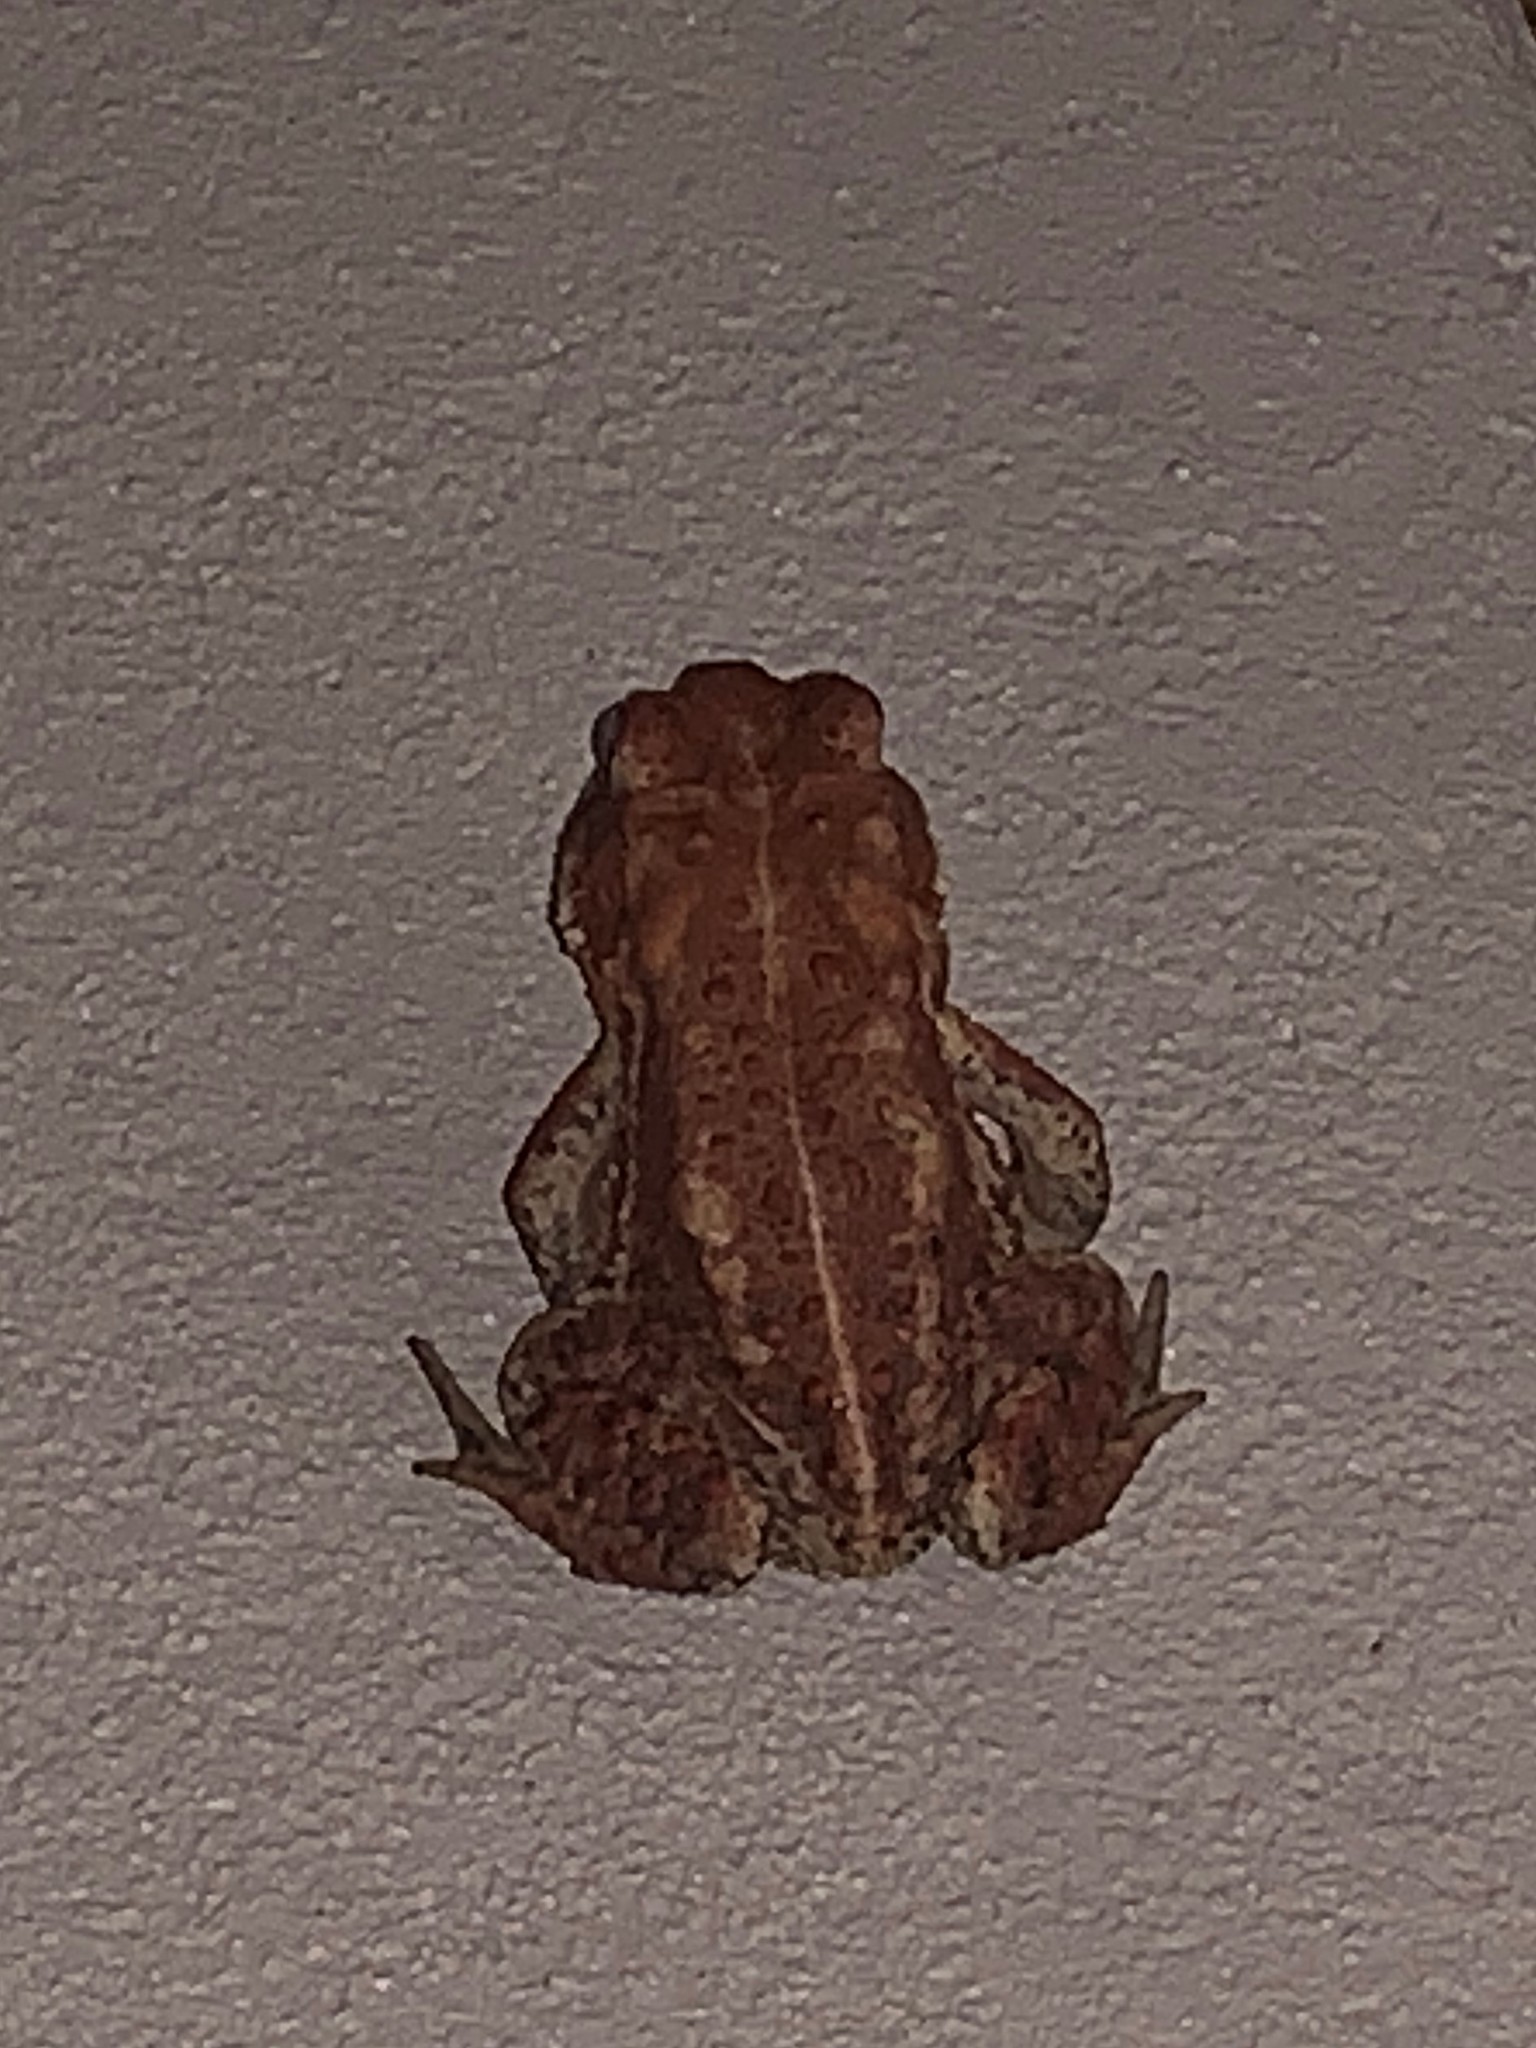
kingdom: Animalia
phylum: Chordata
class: Amphibia
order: Anura
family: Bufonidae
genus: Anaxyrus
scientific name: Anaxyrus
